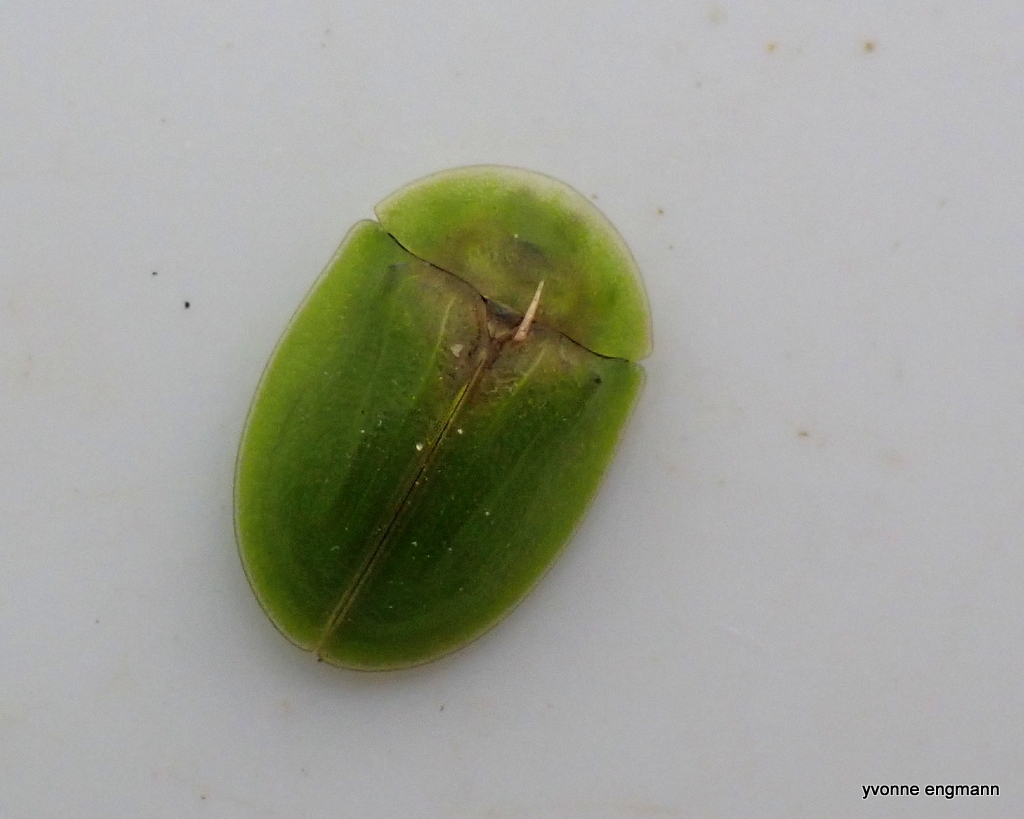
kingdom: Animalia
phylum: Arthropoda
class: Insecta
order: Coleoptera
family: Chrysomelidae
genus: Cassida
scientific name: Cassida rubiginosa
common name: Thistle tortoise beetle
